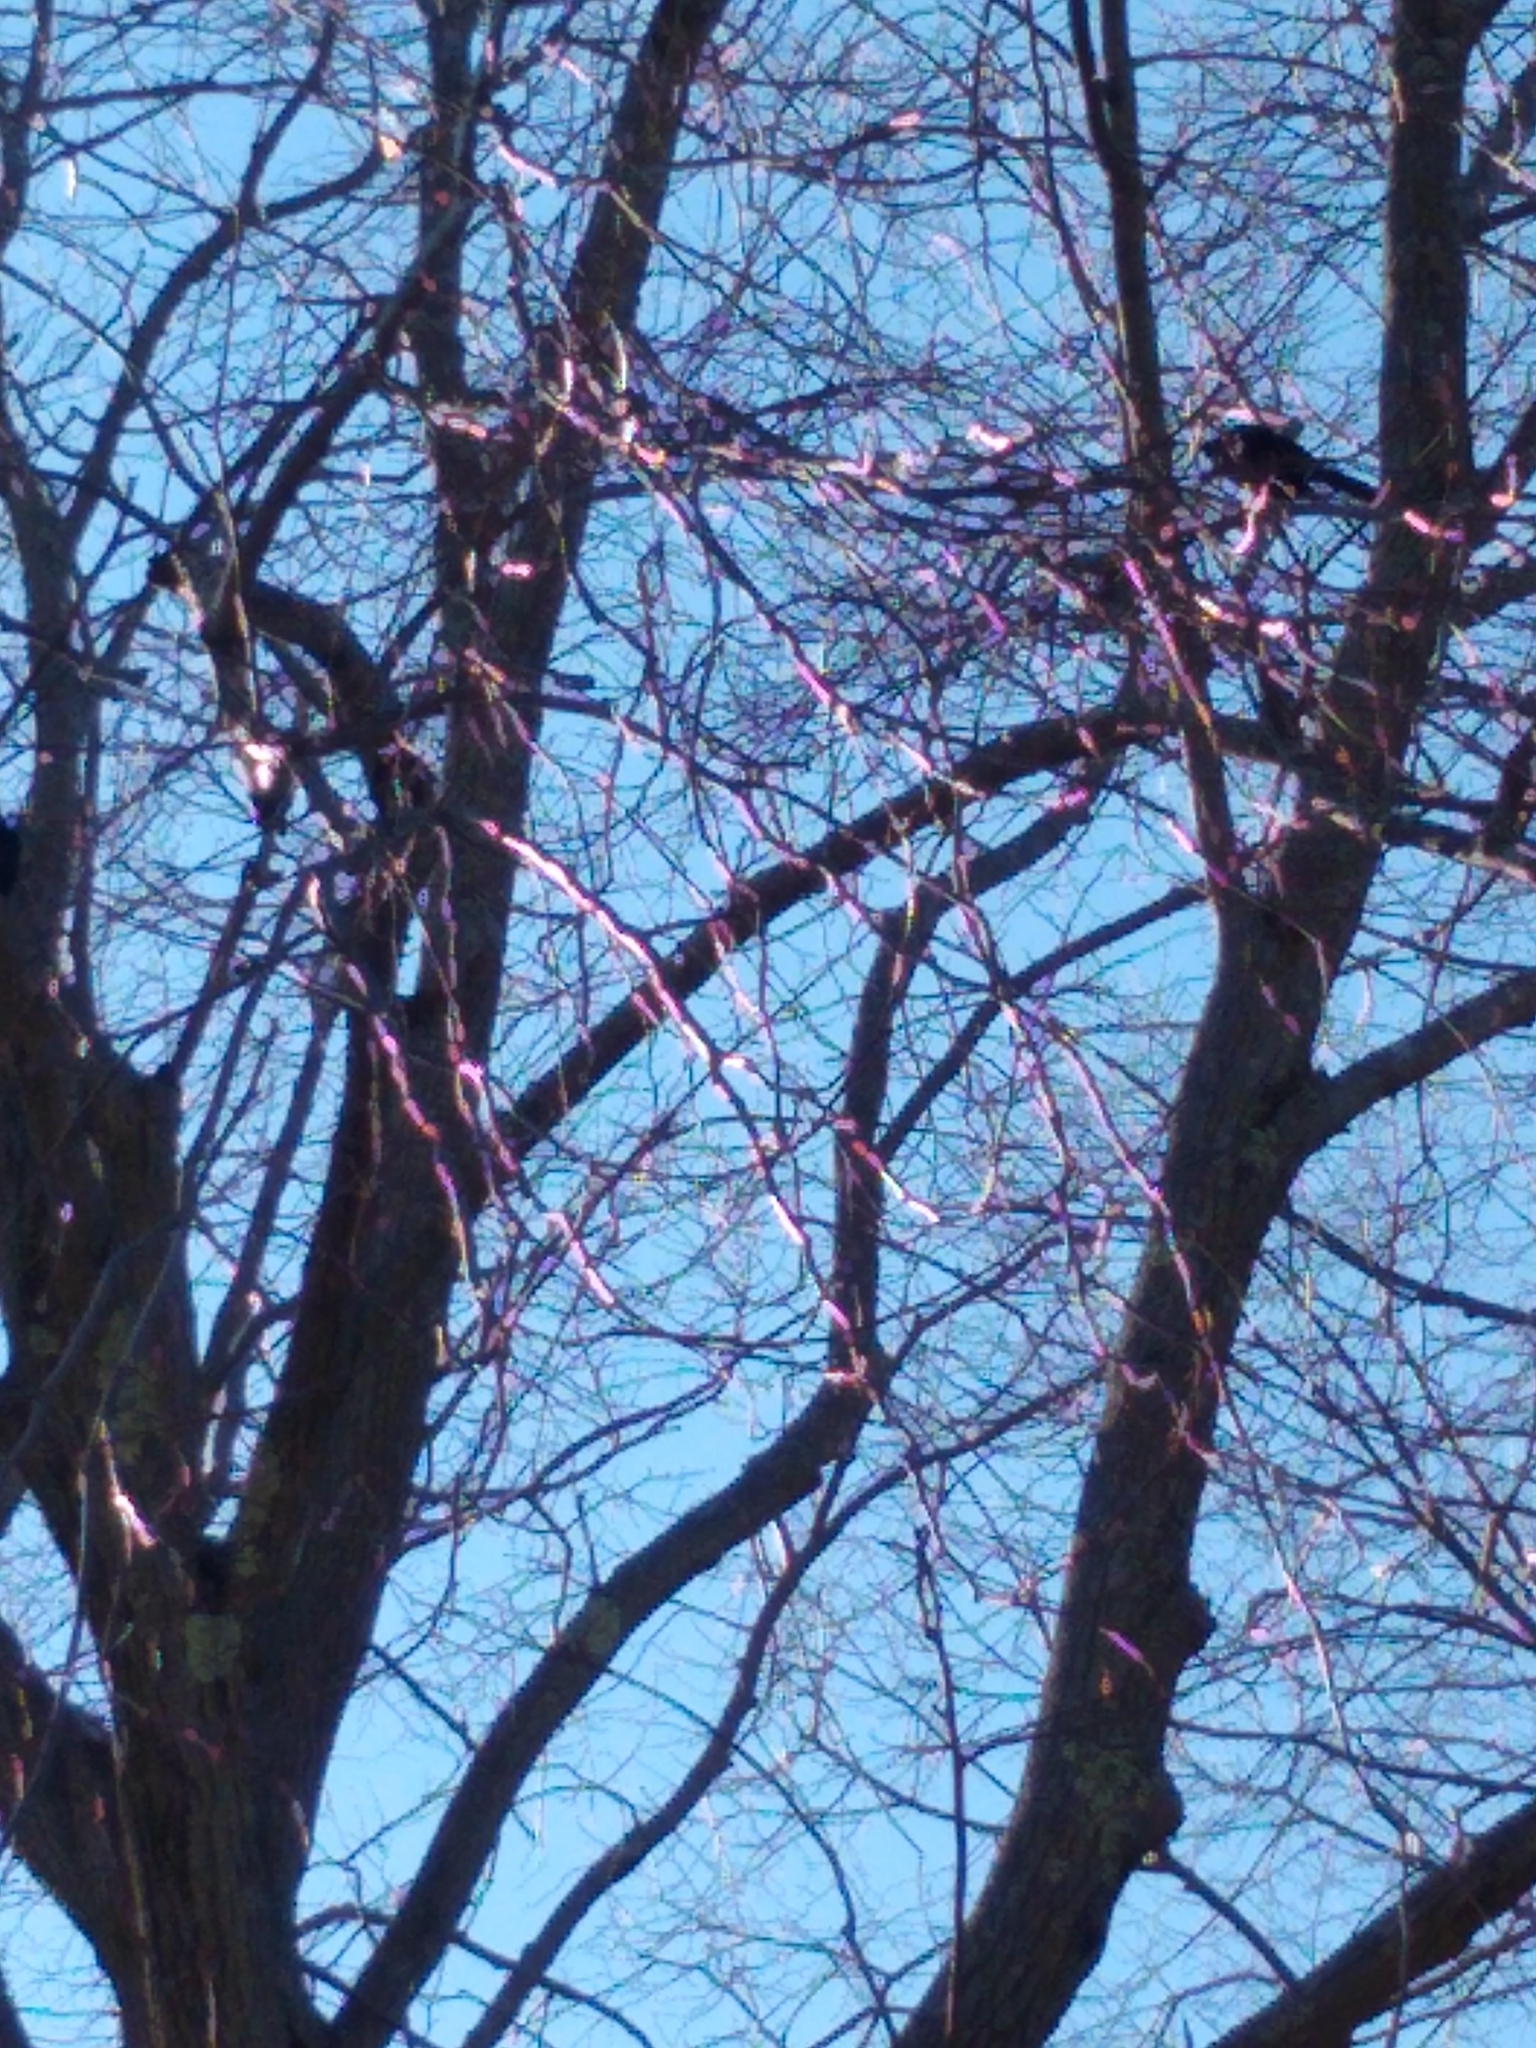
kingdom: Animalia
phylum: Chordata
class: Aves
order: Passeriformes
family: Icteridae
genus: Quiscalus
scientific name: Quiscalus quiscula
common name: Common grackle
